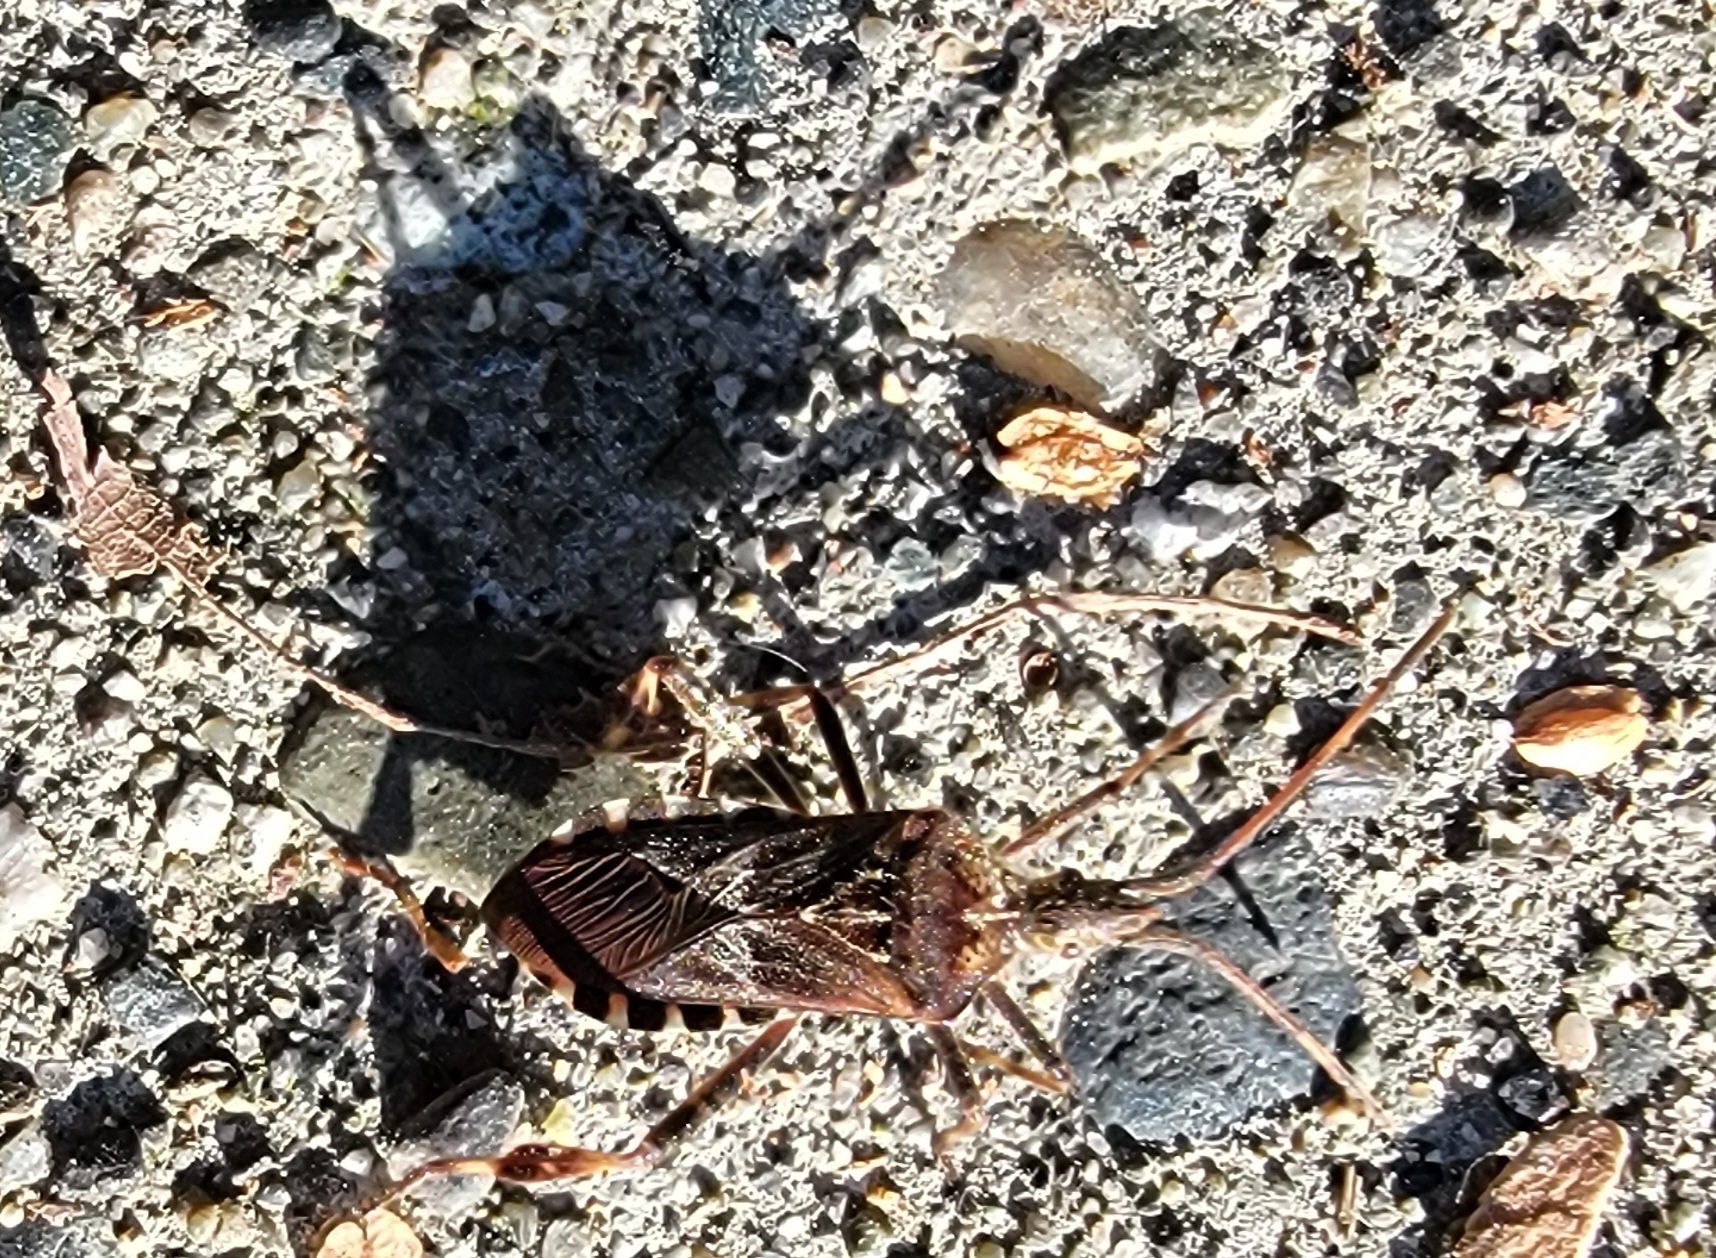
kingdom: Animalia
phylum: Arthropoda
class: Insecta
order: Hemiptera
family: Coreidae
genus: Leptoglossus
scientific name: Leptoglossus occidentalis
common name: Western conifer-seed bug
